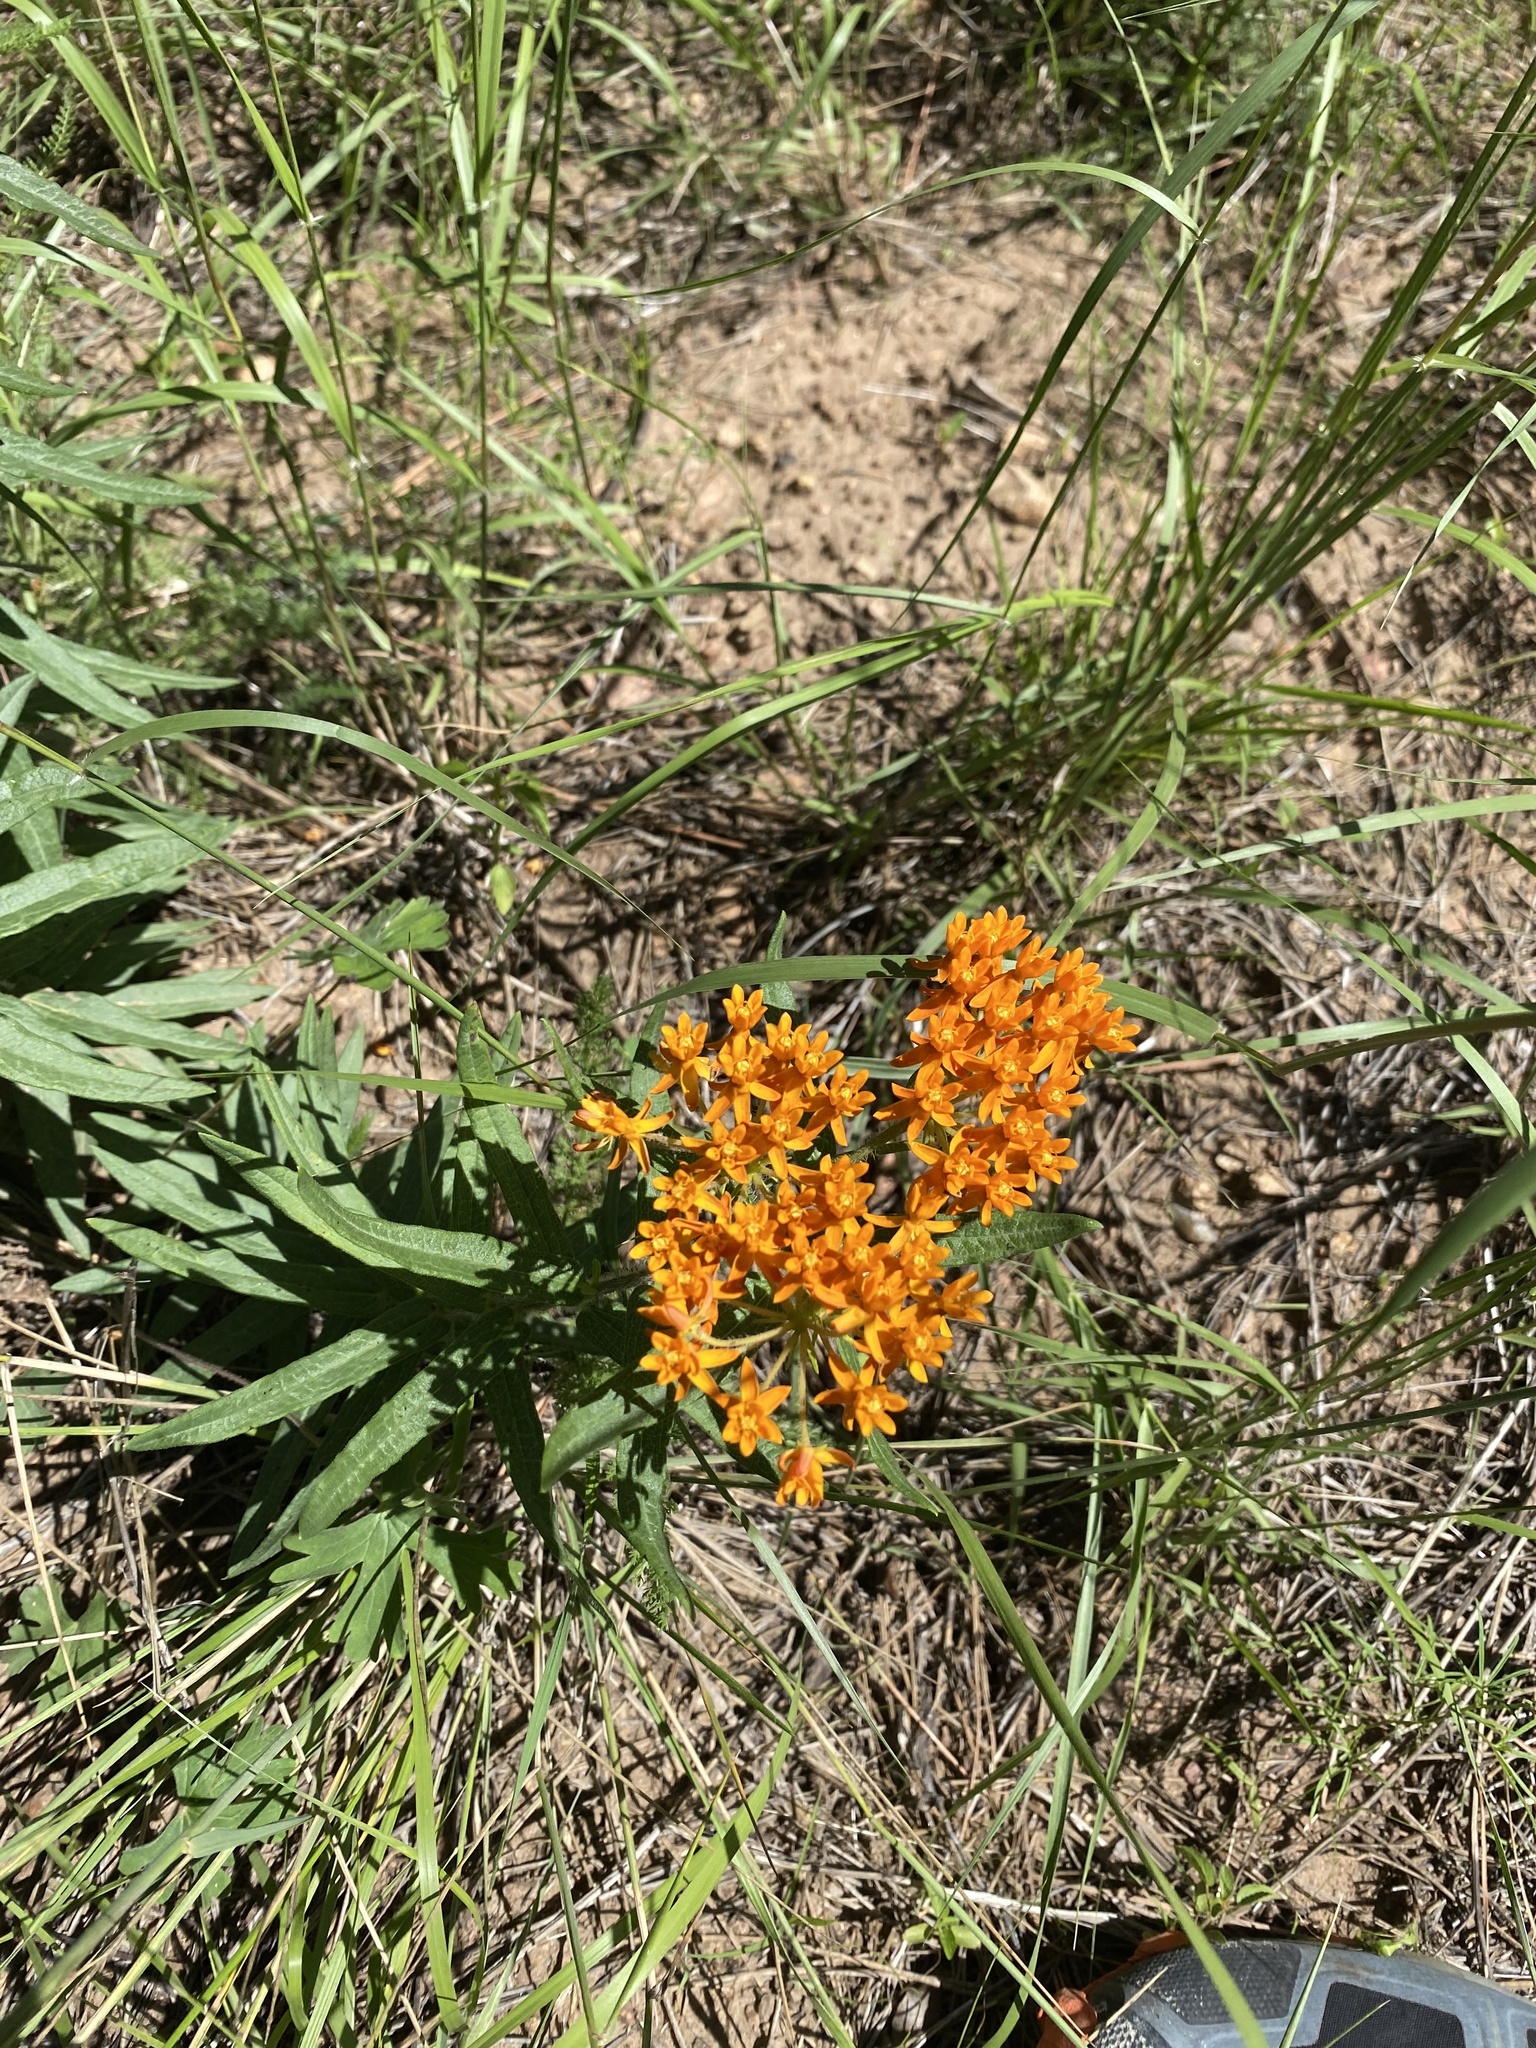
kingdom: Plantae
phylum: Tracheophyta
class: Magnoliopsida
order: Gentianales
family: Apocynaceae
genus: Asclepias
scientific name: Asclepias tuberosa
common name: Butterfly milkweed
